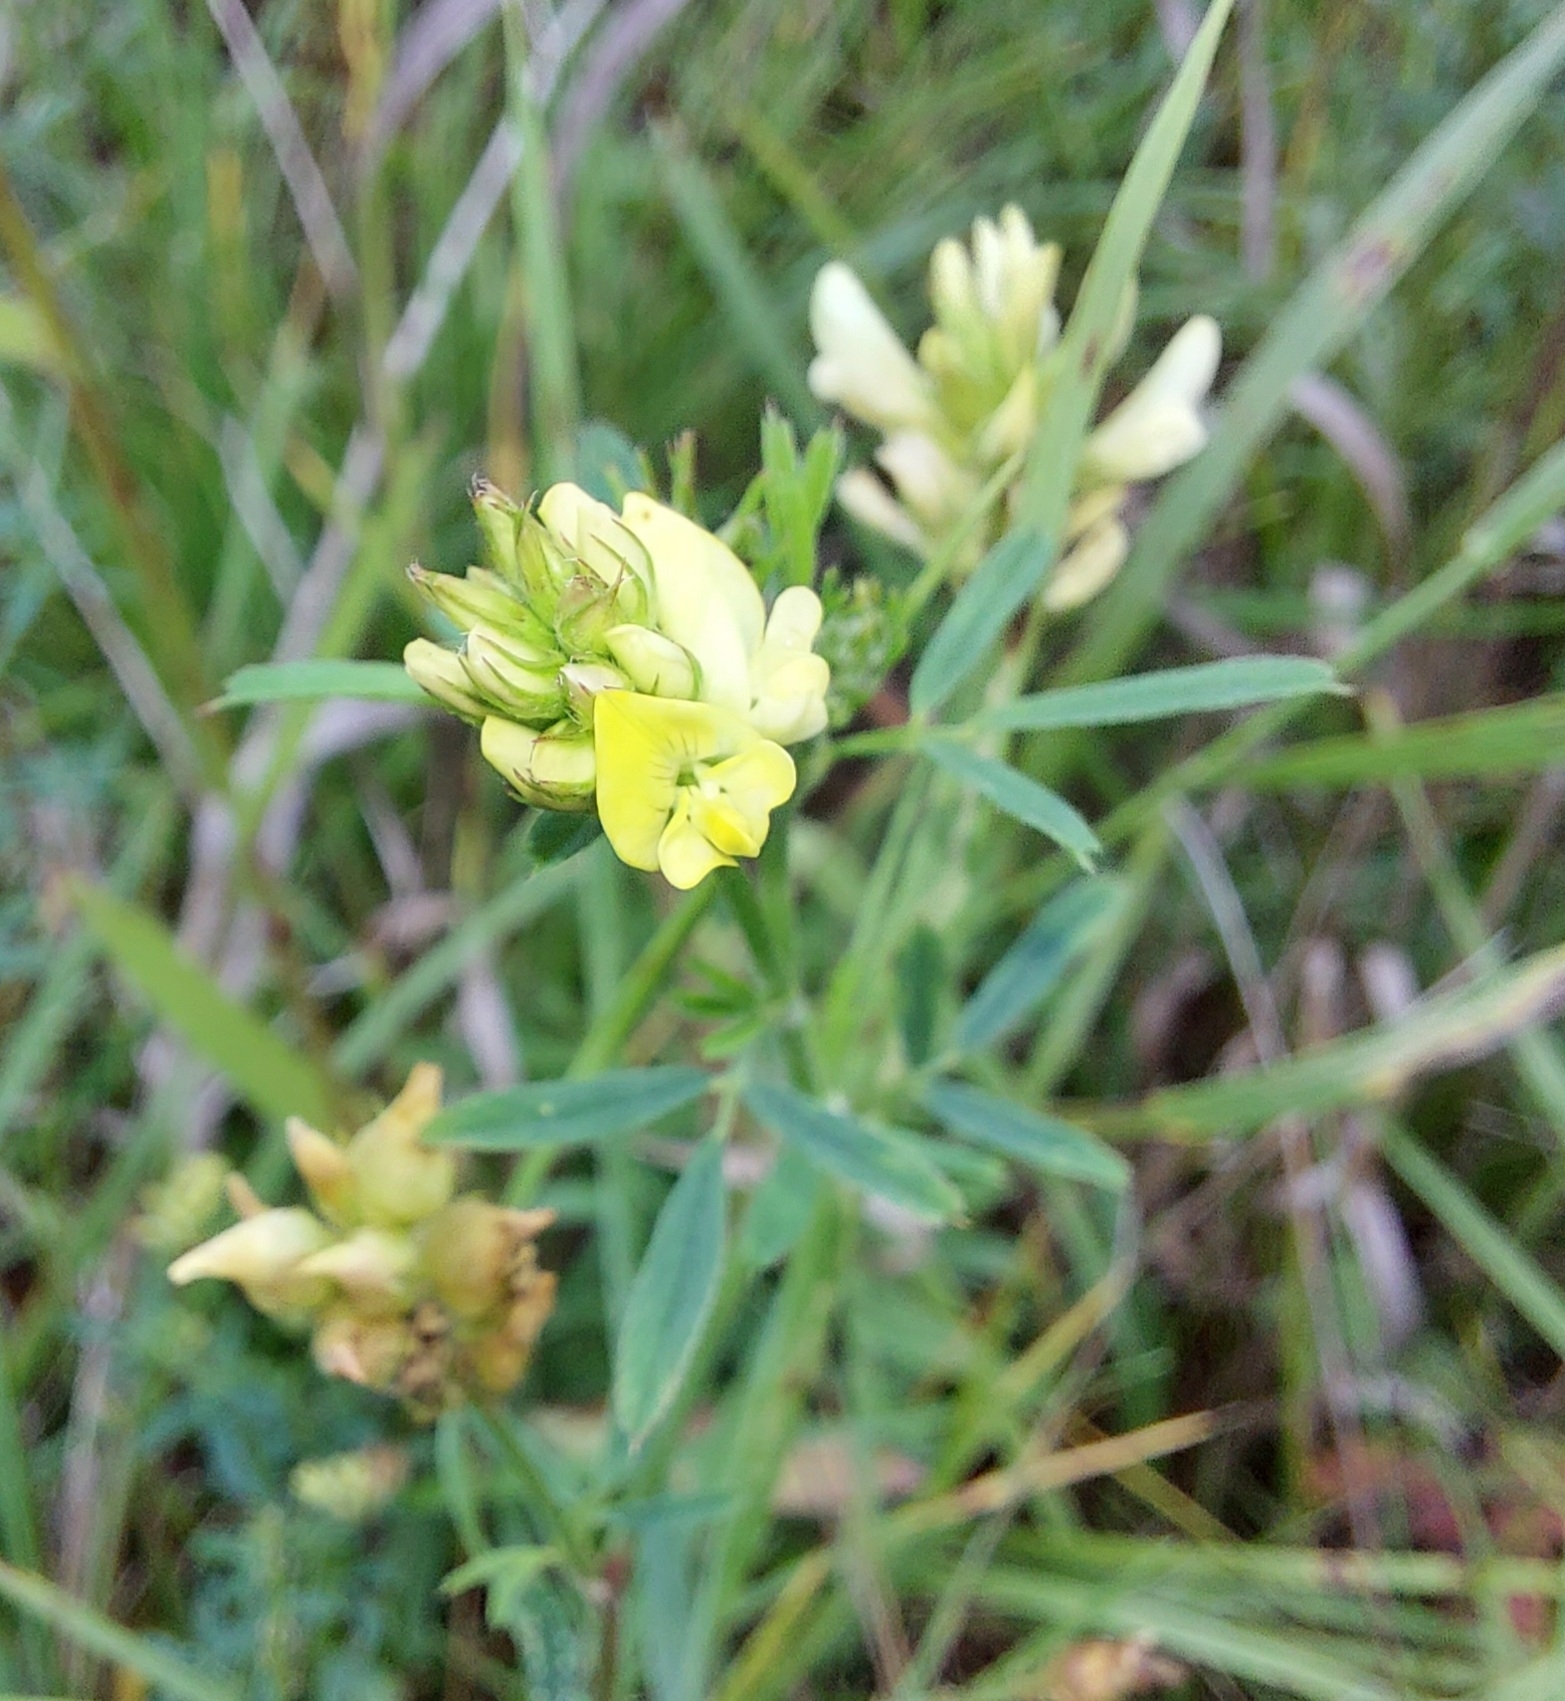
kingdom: Plantae
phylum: Tracheophyta
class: Magnoliopsida
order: Fabales
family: Fabaceae
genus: Medicago
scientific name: Medicago varia
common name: Sand lucerne
